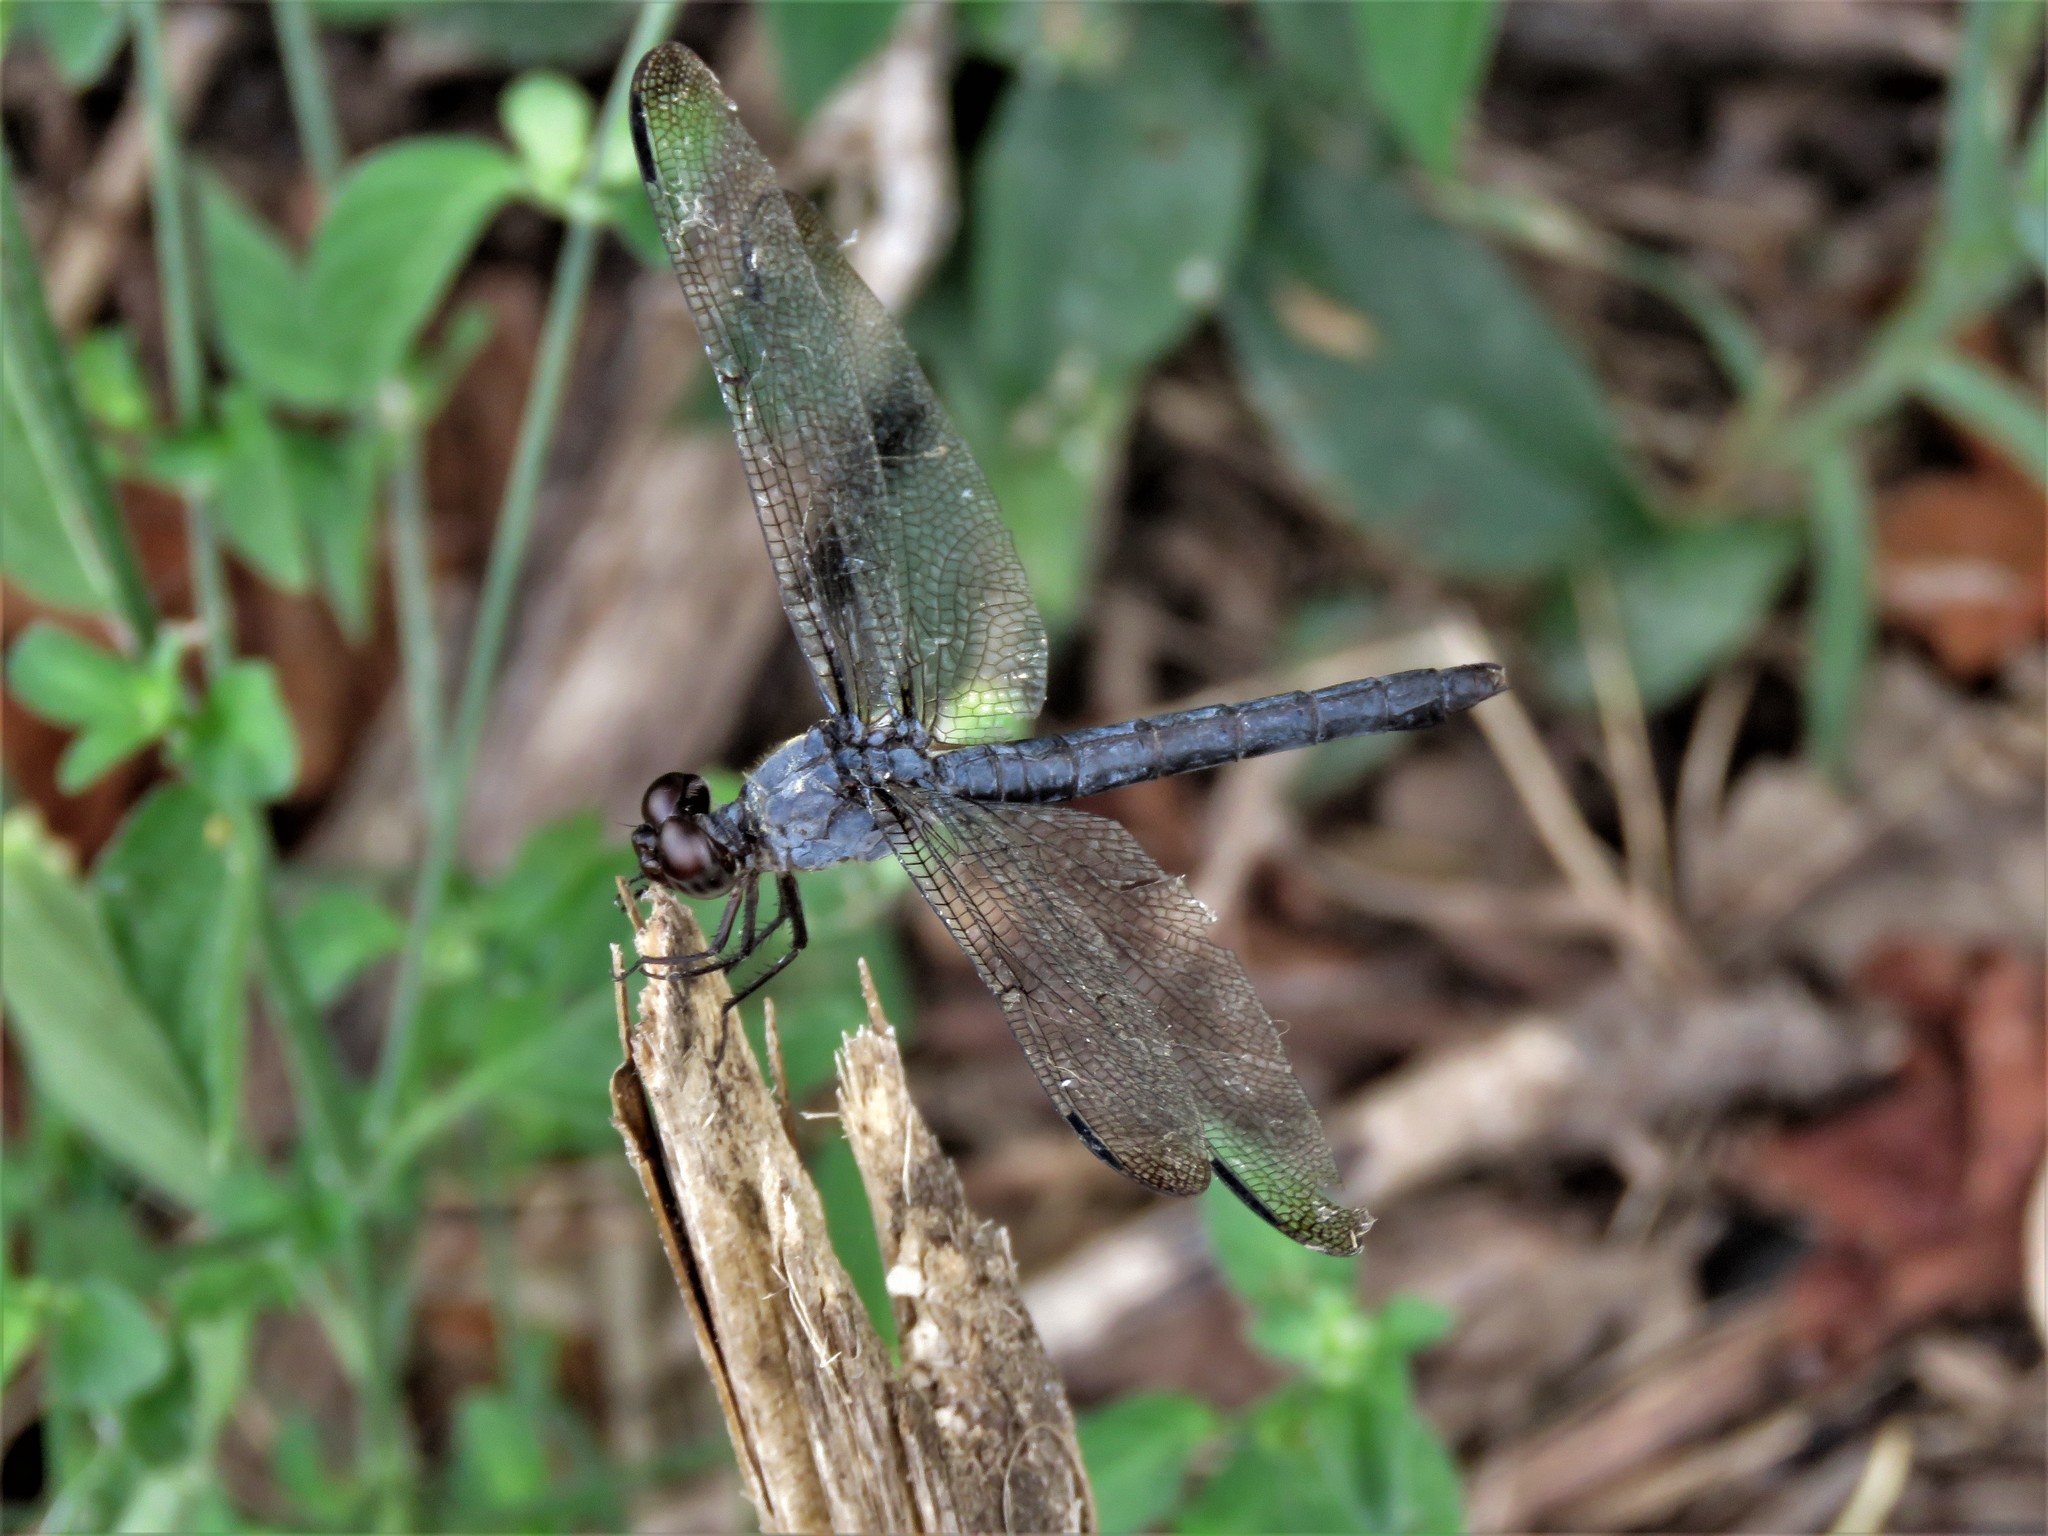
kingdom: Animalia
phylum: Arthropoda
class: Insecta
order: Odonata
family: Libellulidae
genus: Libellula
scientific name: Libellula incesta
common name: Slaty skimmer
